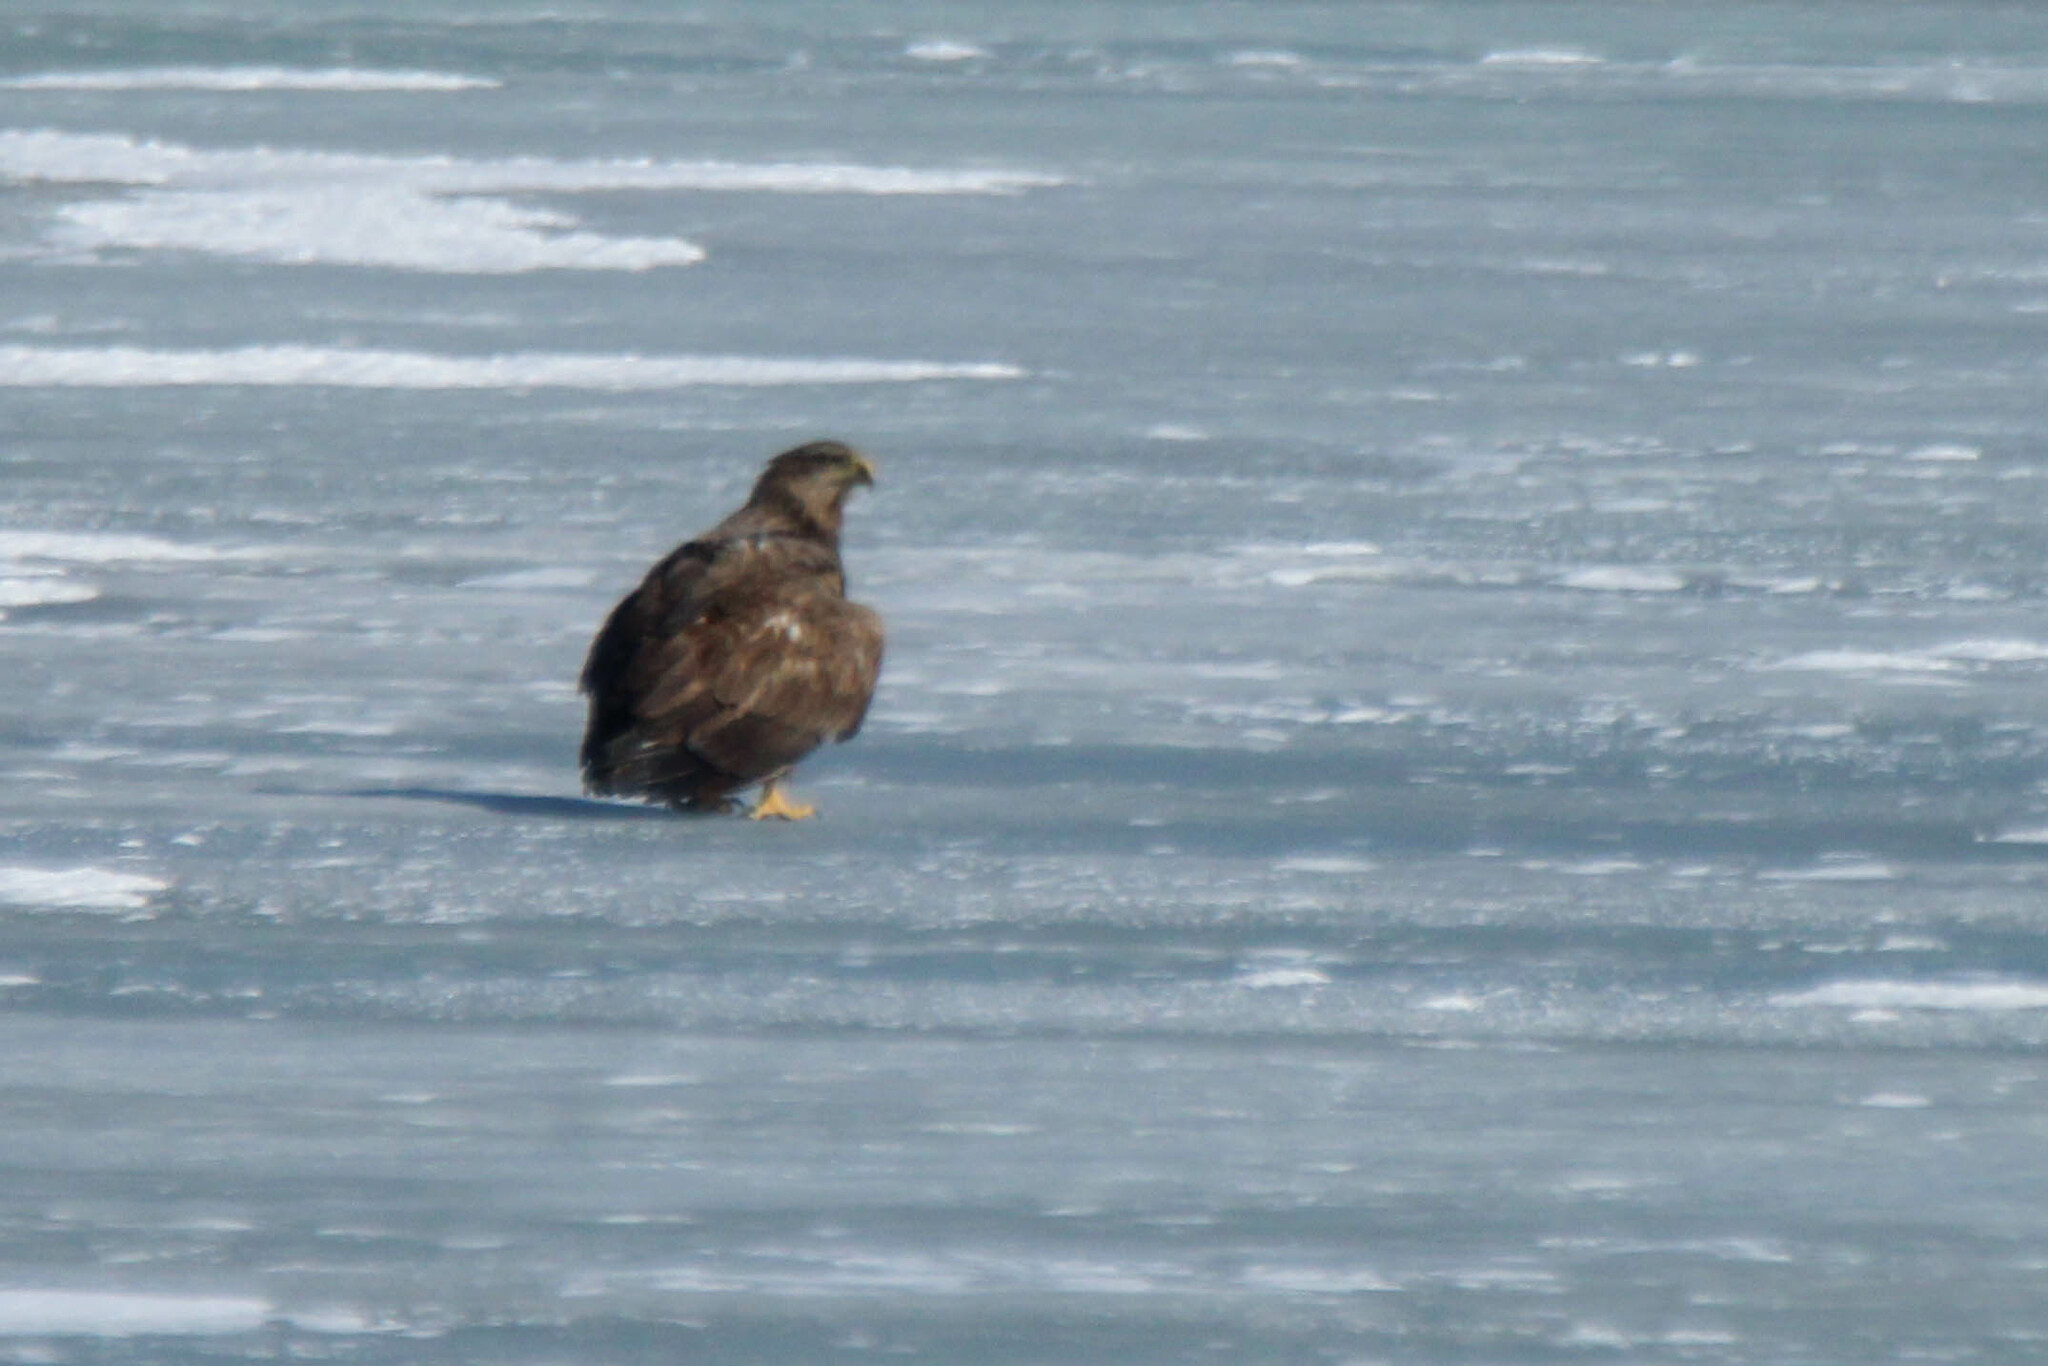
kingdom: Animalia
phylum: Chordata
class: Aves
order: Accipitriformes
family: Accipitridae
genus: Haliaeetus
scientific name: Haliaeetus albicilla
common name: White-tailed eagle
